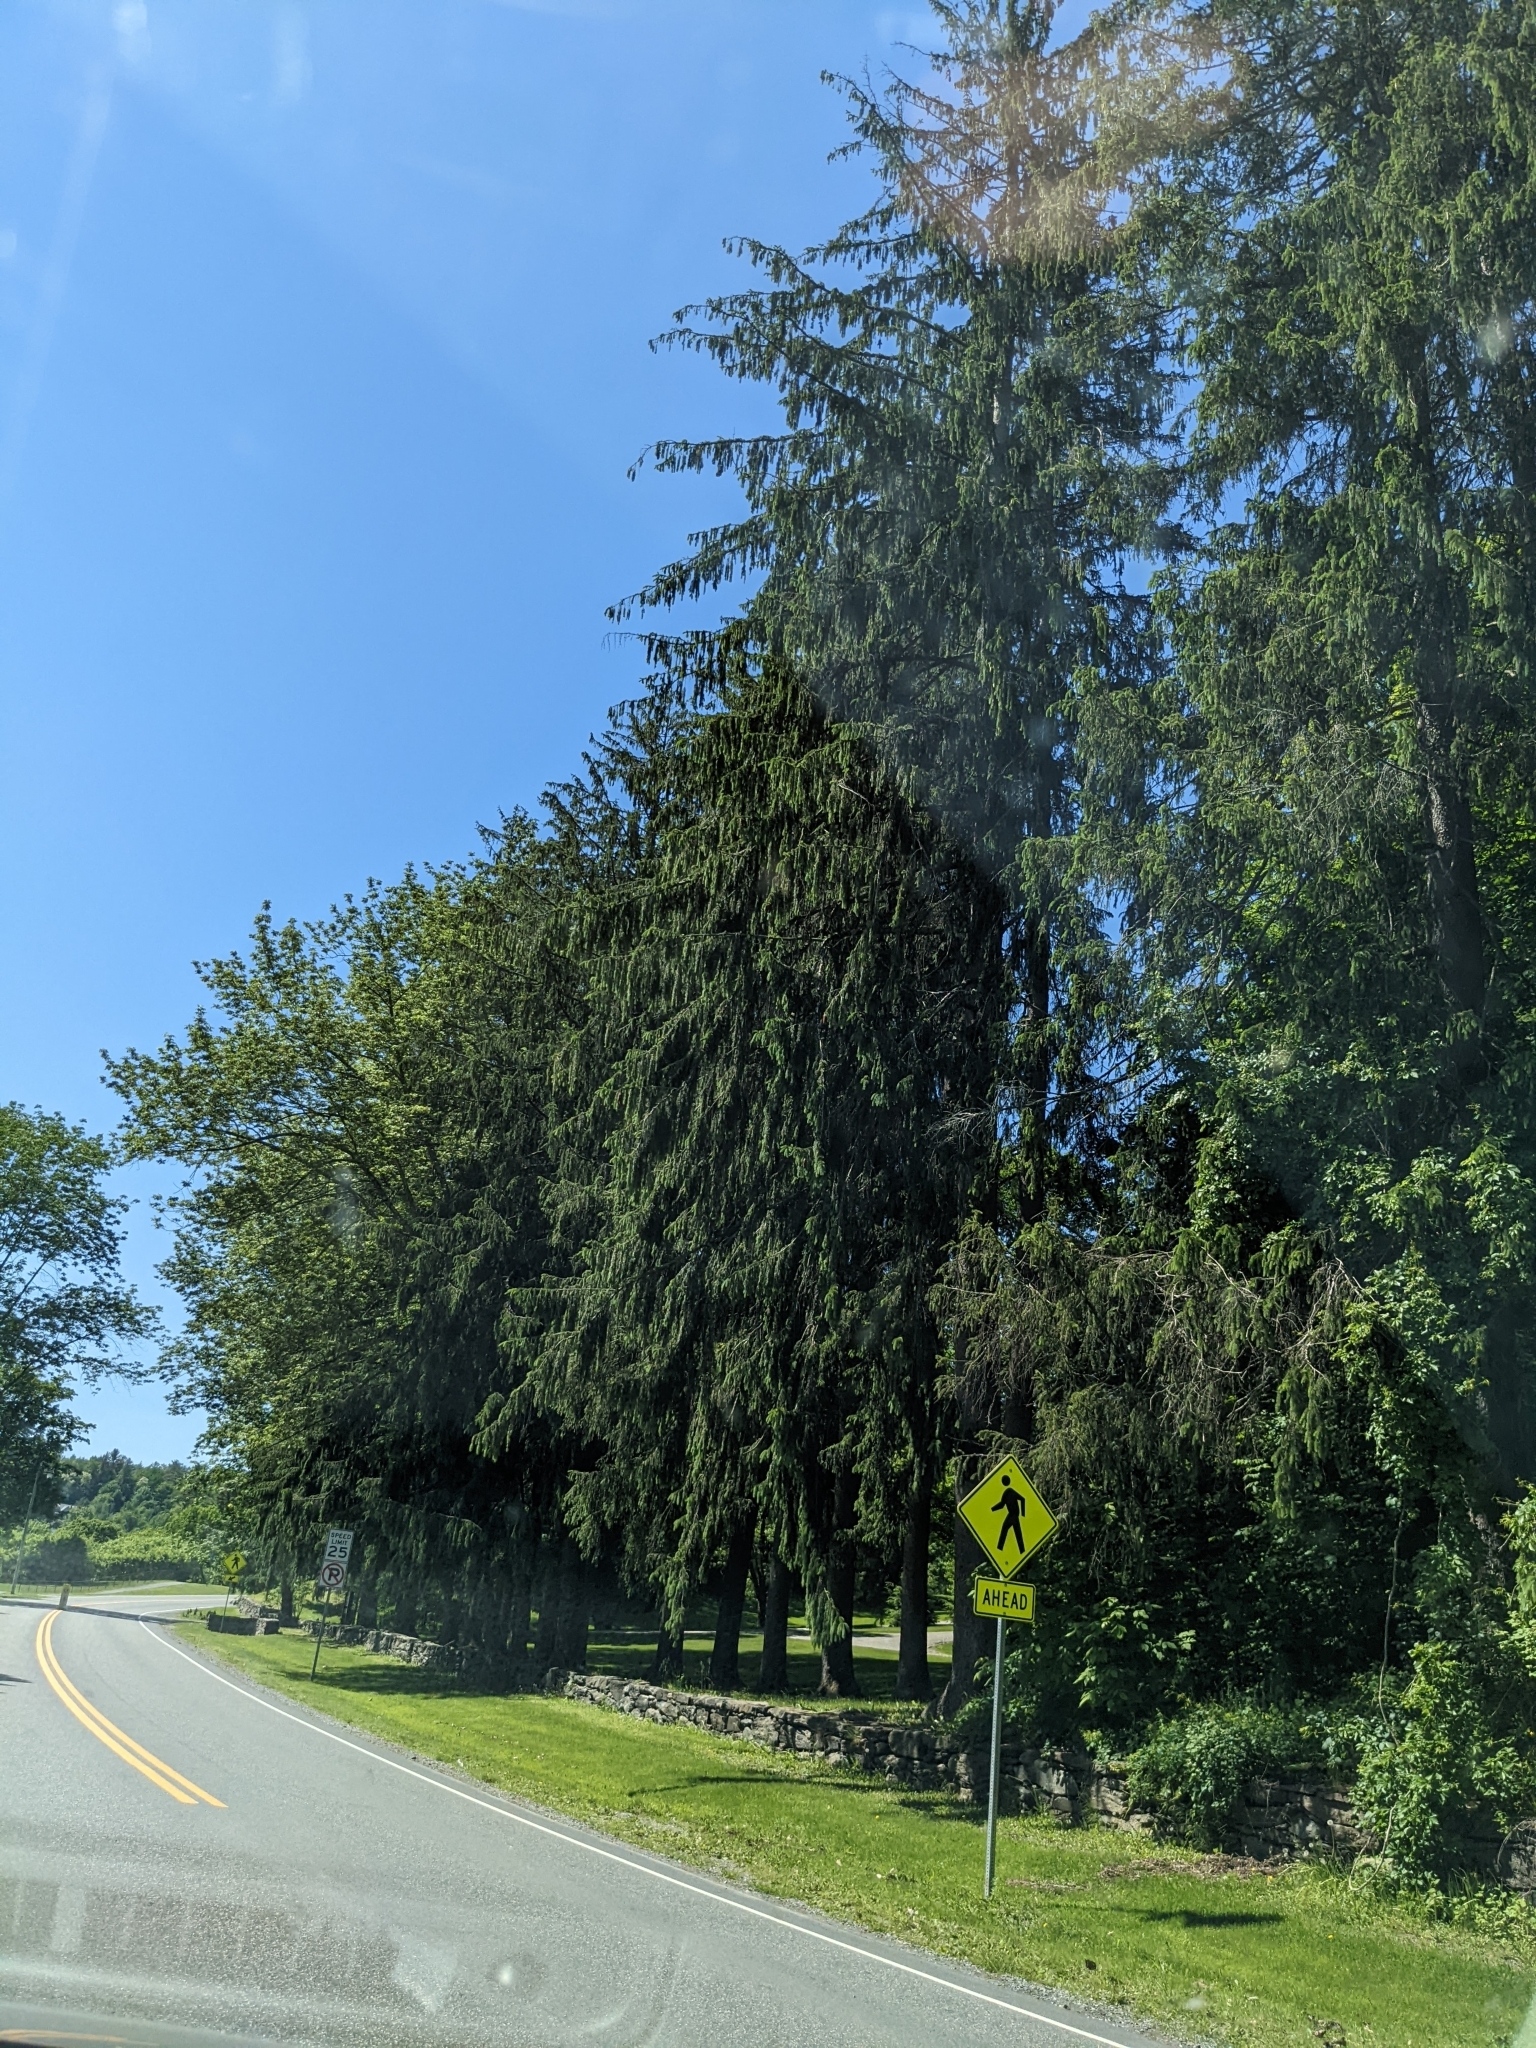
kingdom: Plantae
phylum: Tracheophyta
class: Pinopsida
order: Pinales
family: Pinaceae
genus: Picea
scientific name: Picea abies
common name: Norway spruce
